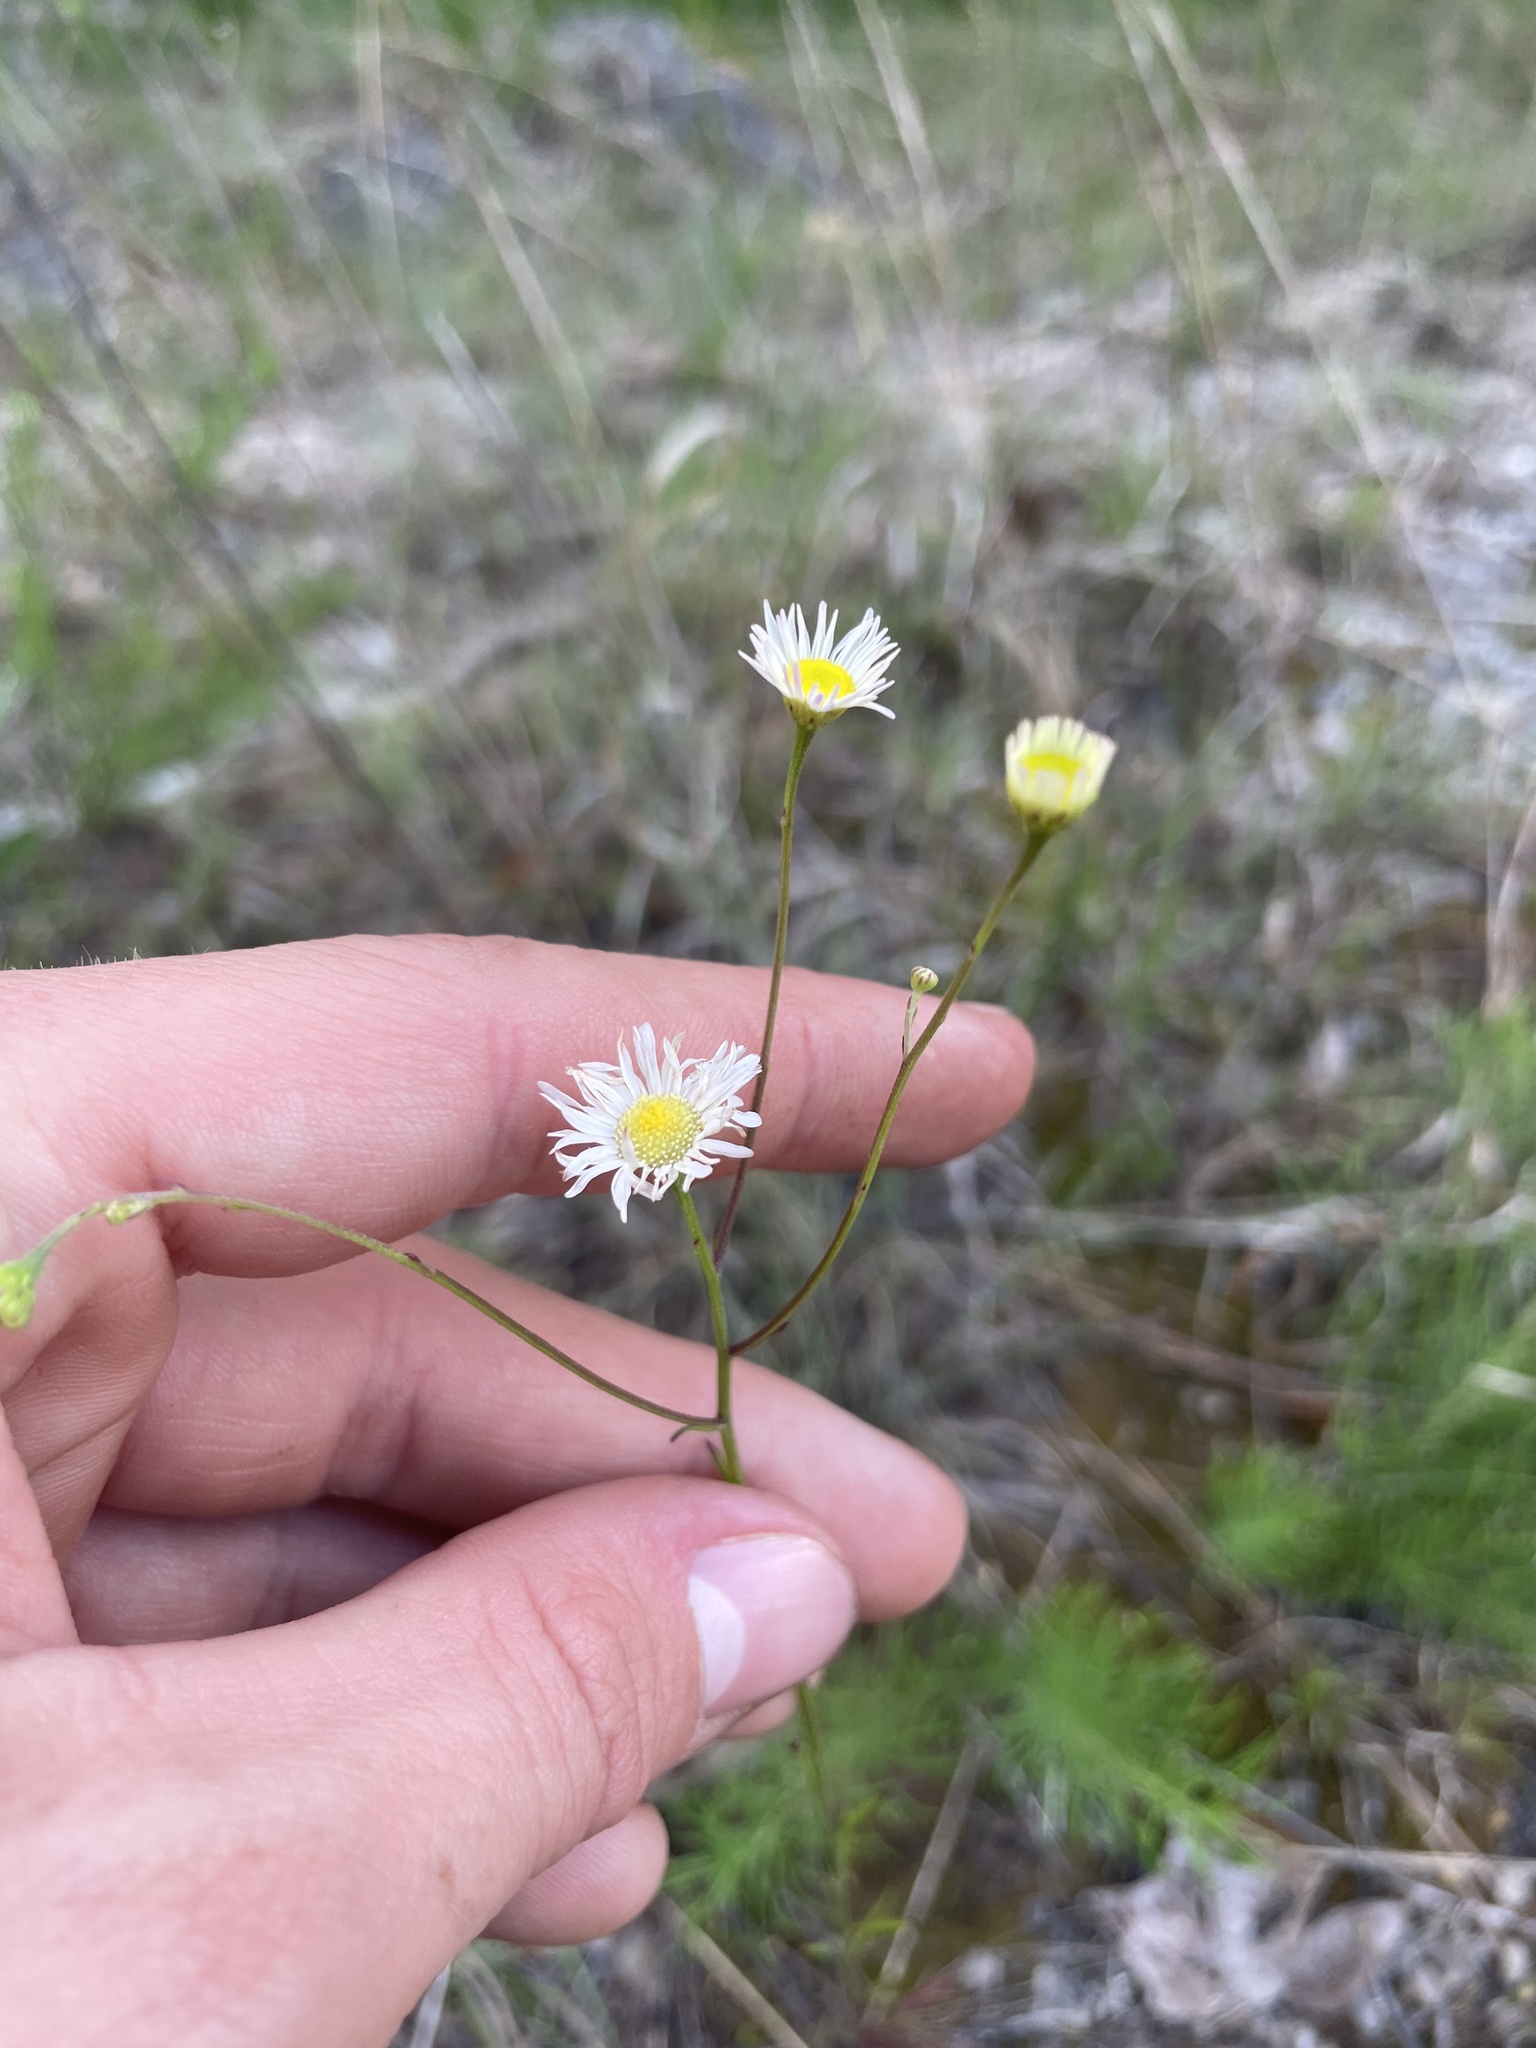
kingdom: Plantae
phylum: Tracheophyta
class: Magnoliopsida
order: Asterales
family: Asteraceae
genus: Erigeron
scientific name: Erigeron dolomiticola
